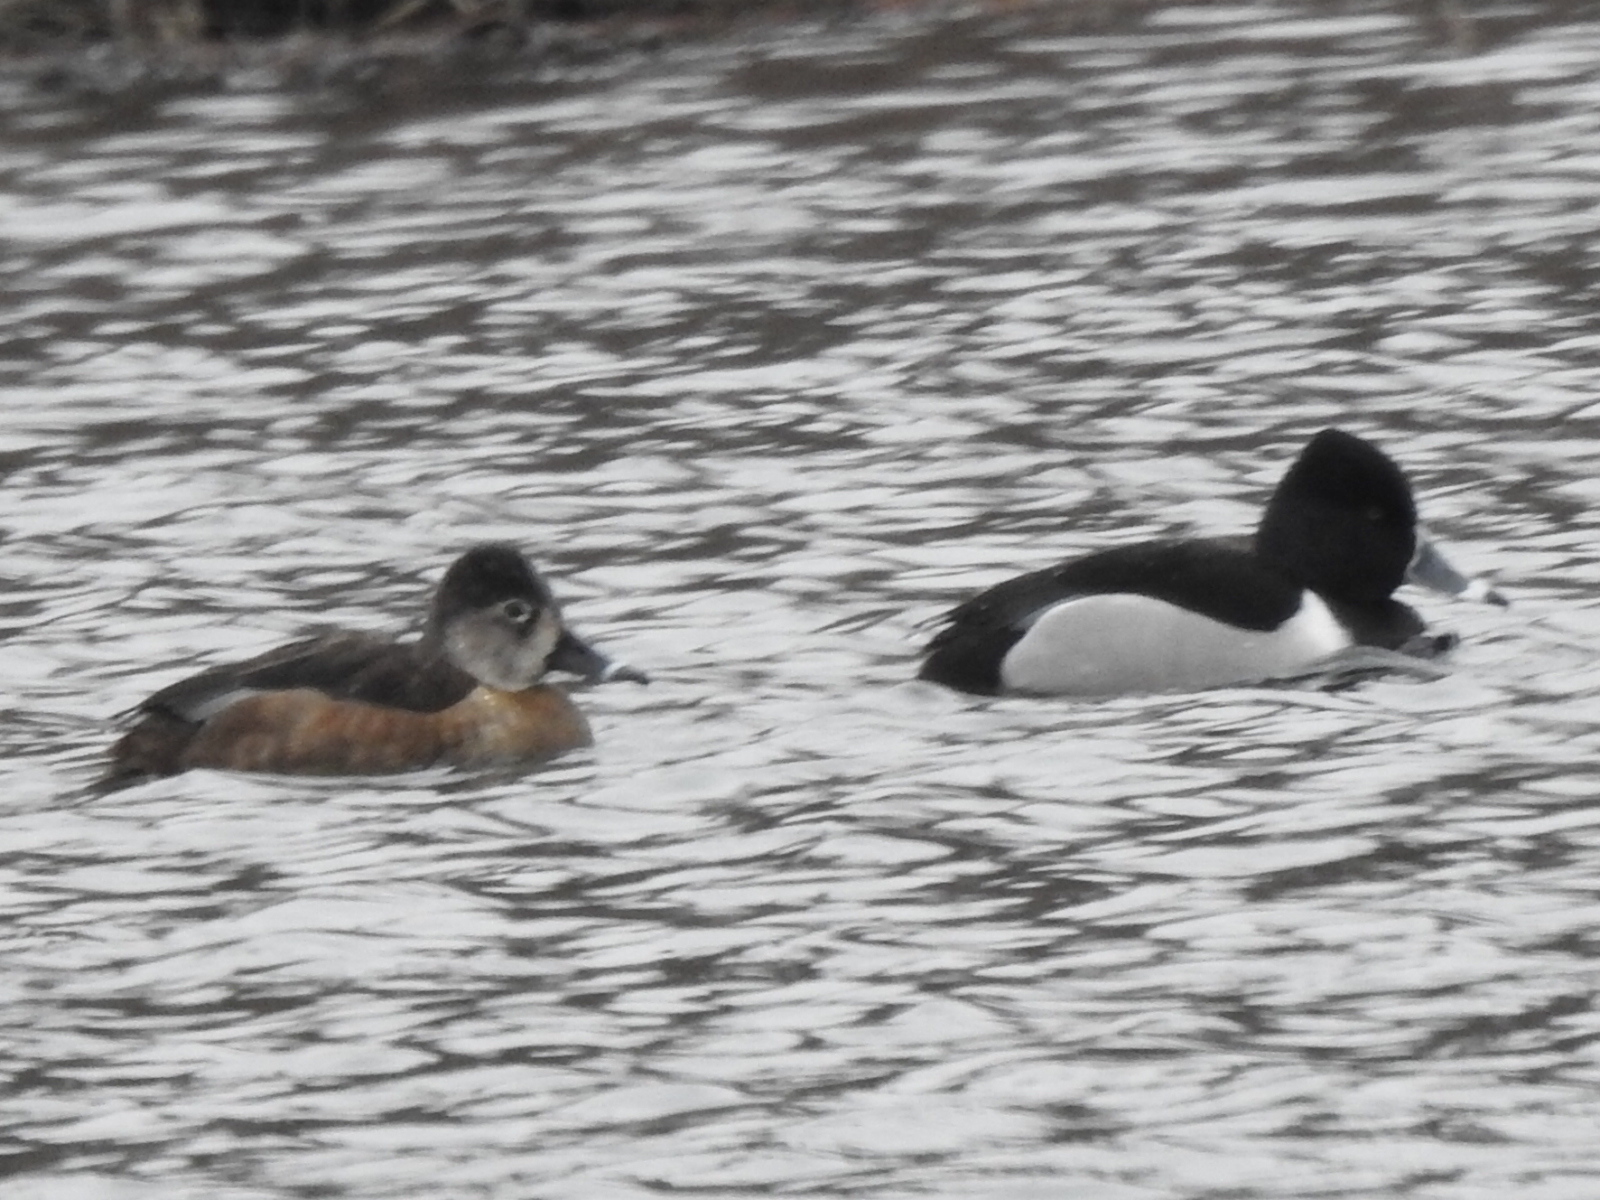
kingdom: Animalia
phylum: Chordata
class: Aves
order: Anseriformes
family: Anatidae
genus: Aythya
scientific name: Aythya collaris
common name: Ring-necked duck
